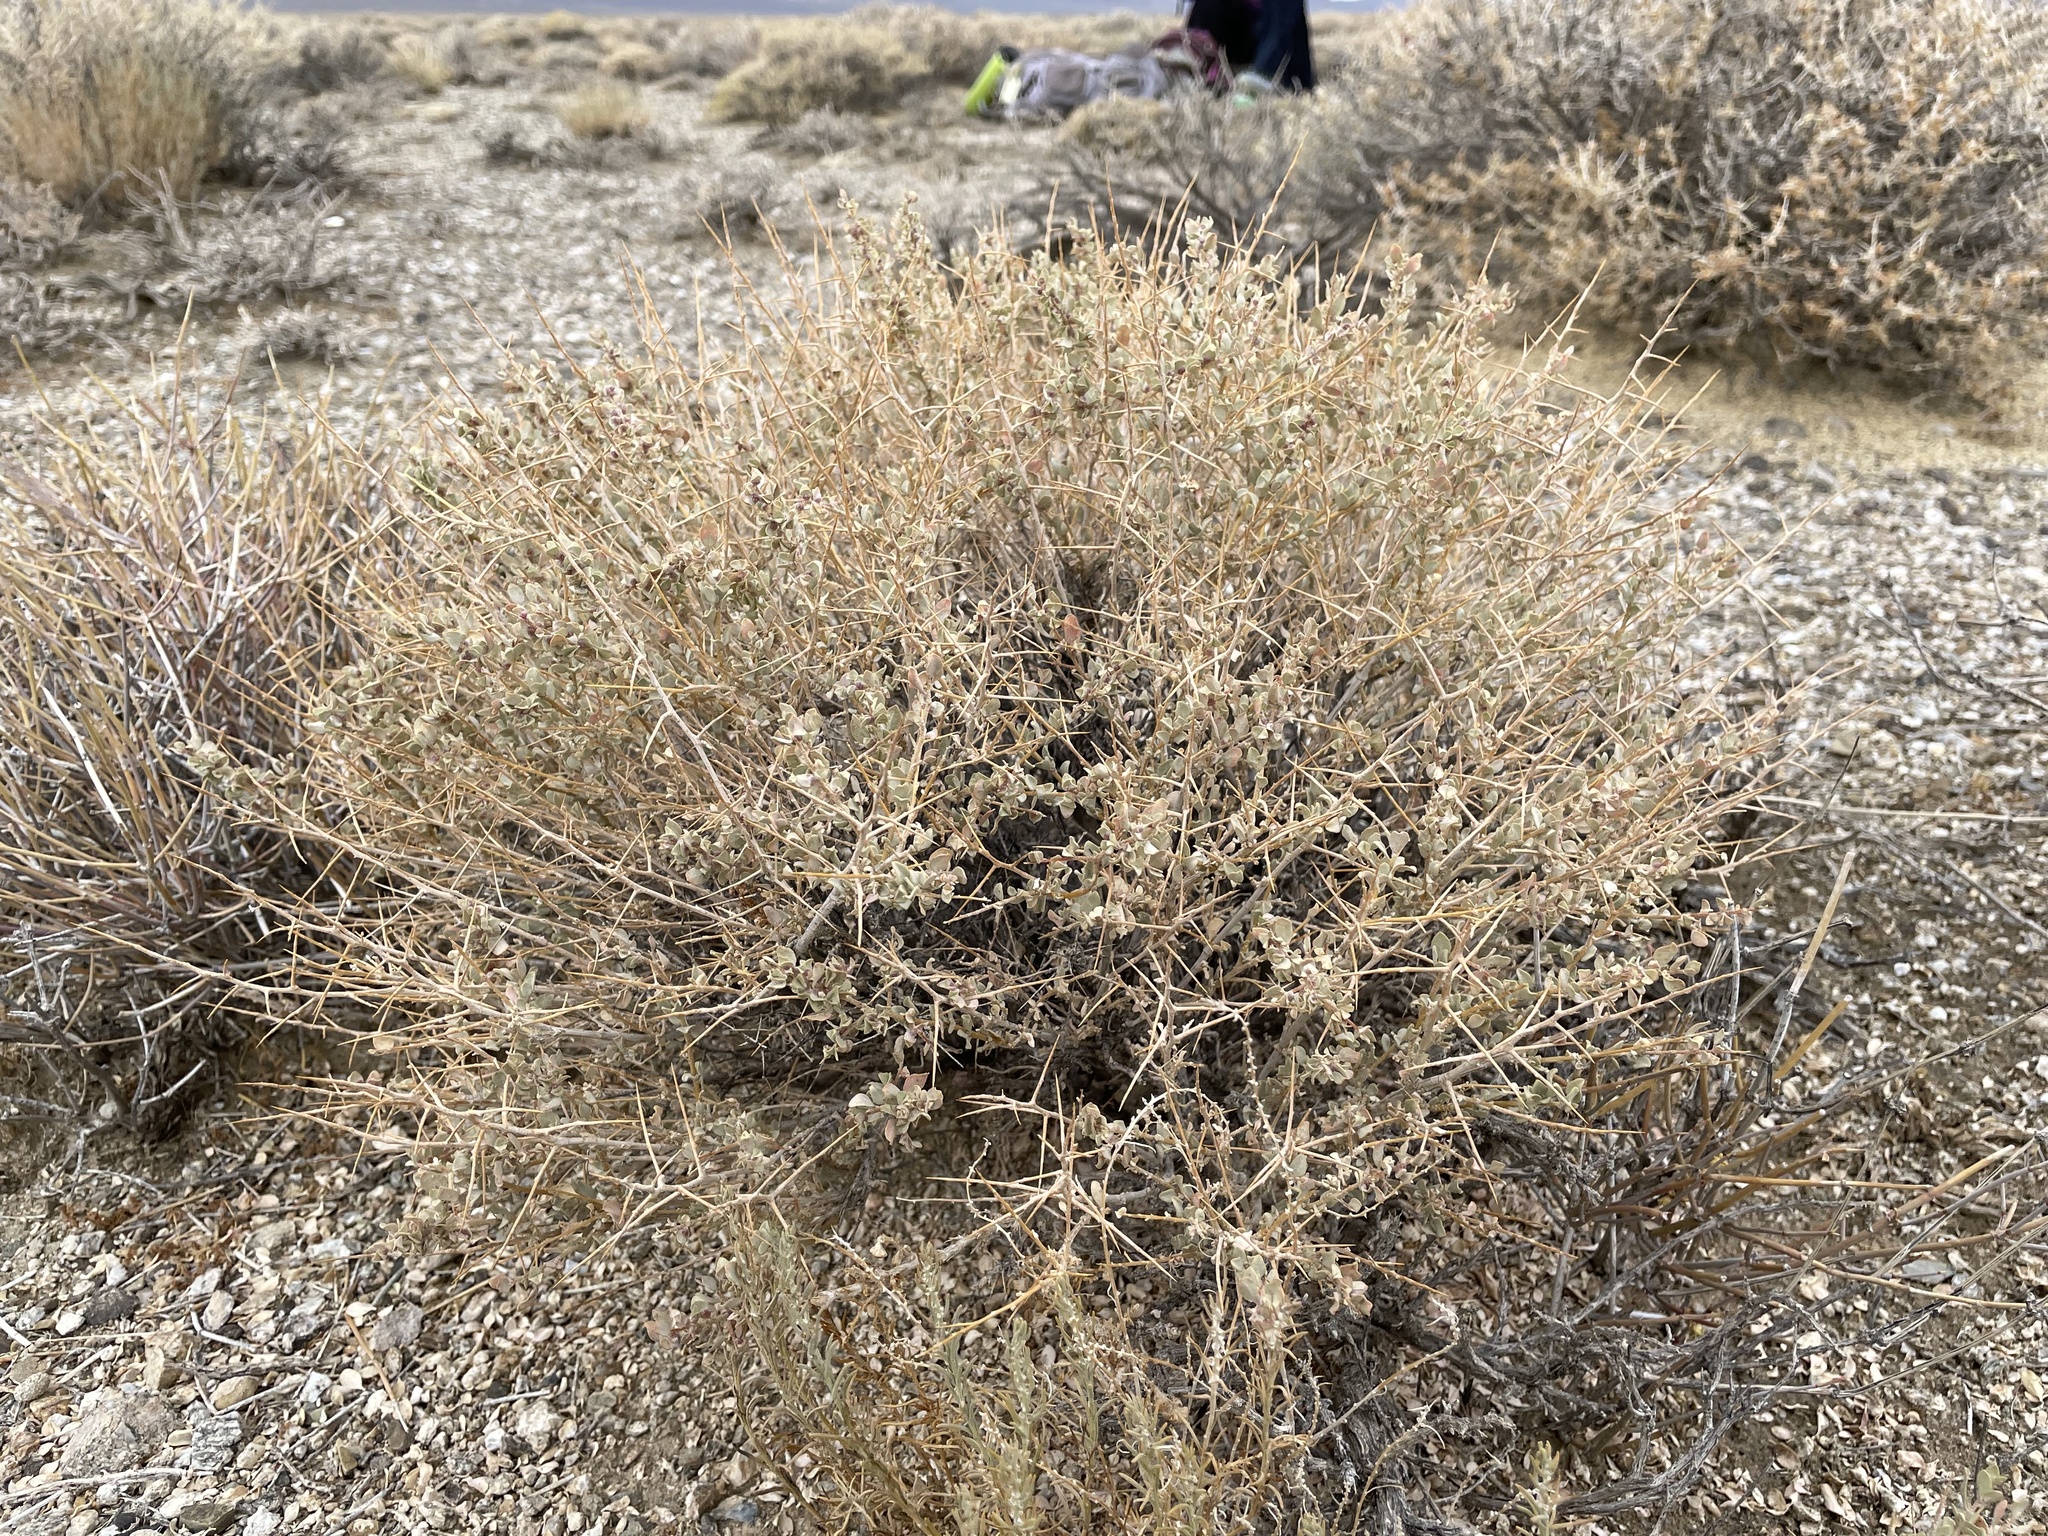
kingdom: Plantae
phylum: Tracheophyta
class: Magnoliopsida
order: Caryophyllales
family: Amaranthaceae
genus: Atriplex
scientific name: Atriplex confertifolia
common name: Shadscale
